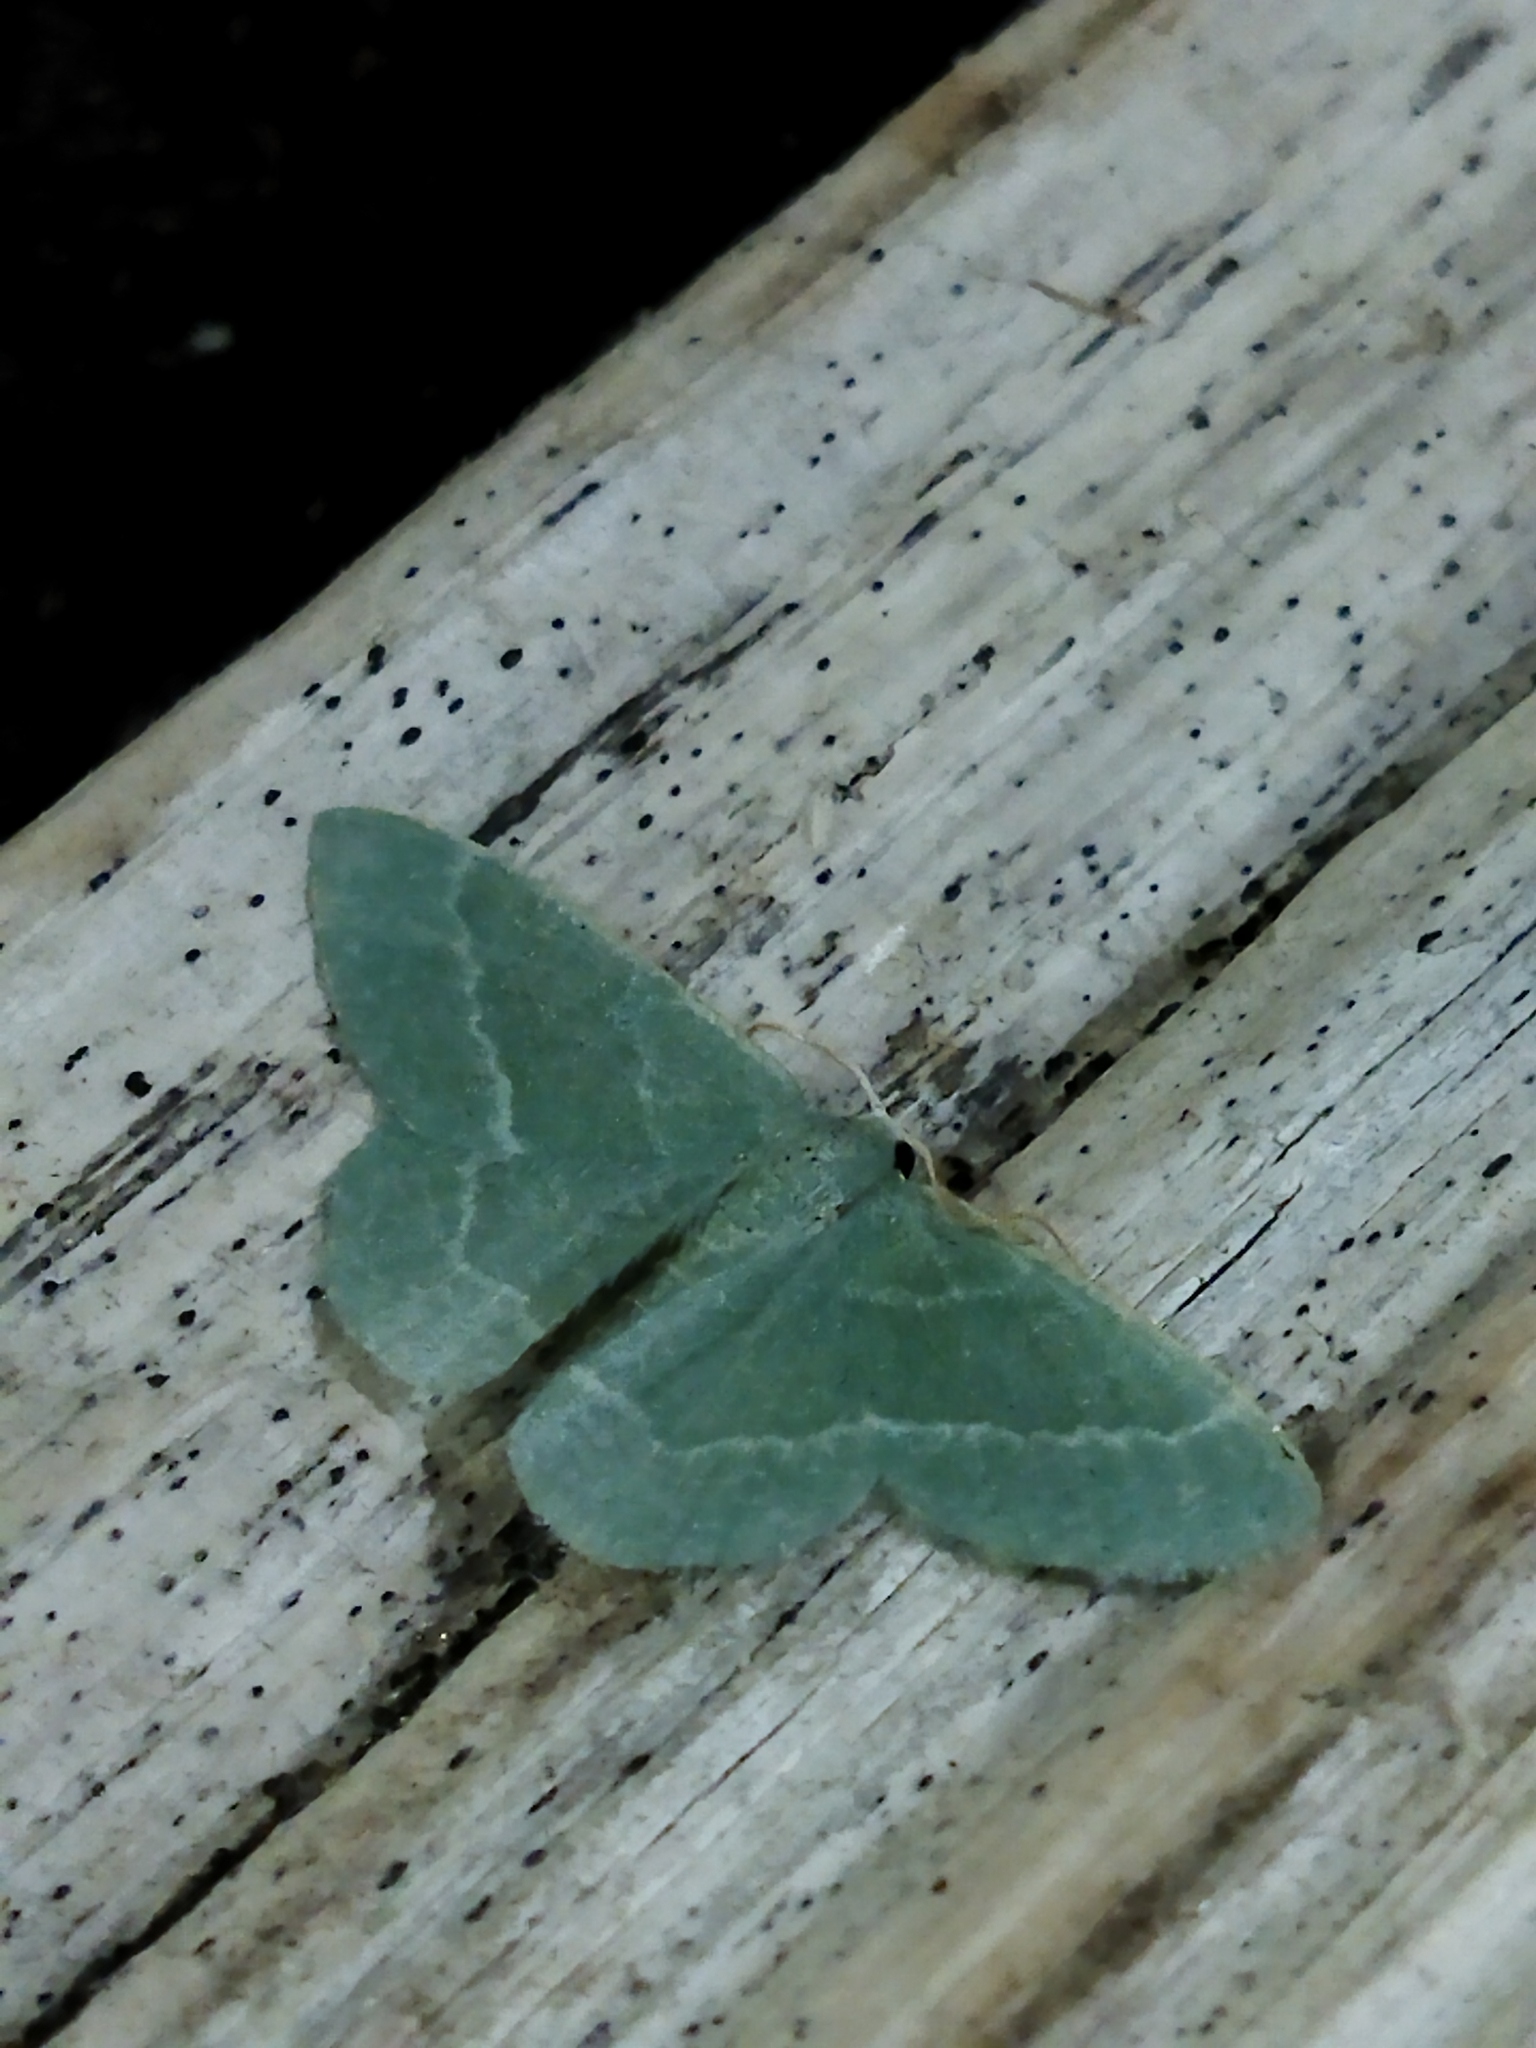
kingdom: Animalia
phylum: Arthropoda
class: Insecta
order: Lepidoptera
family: Geometridae
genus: Chlorissa
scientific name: Chlorissa etruscaria
